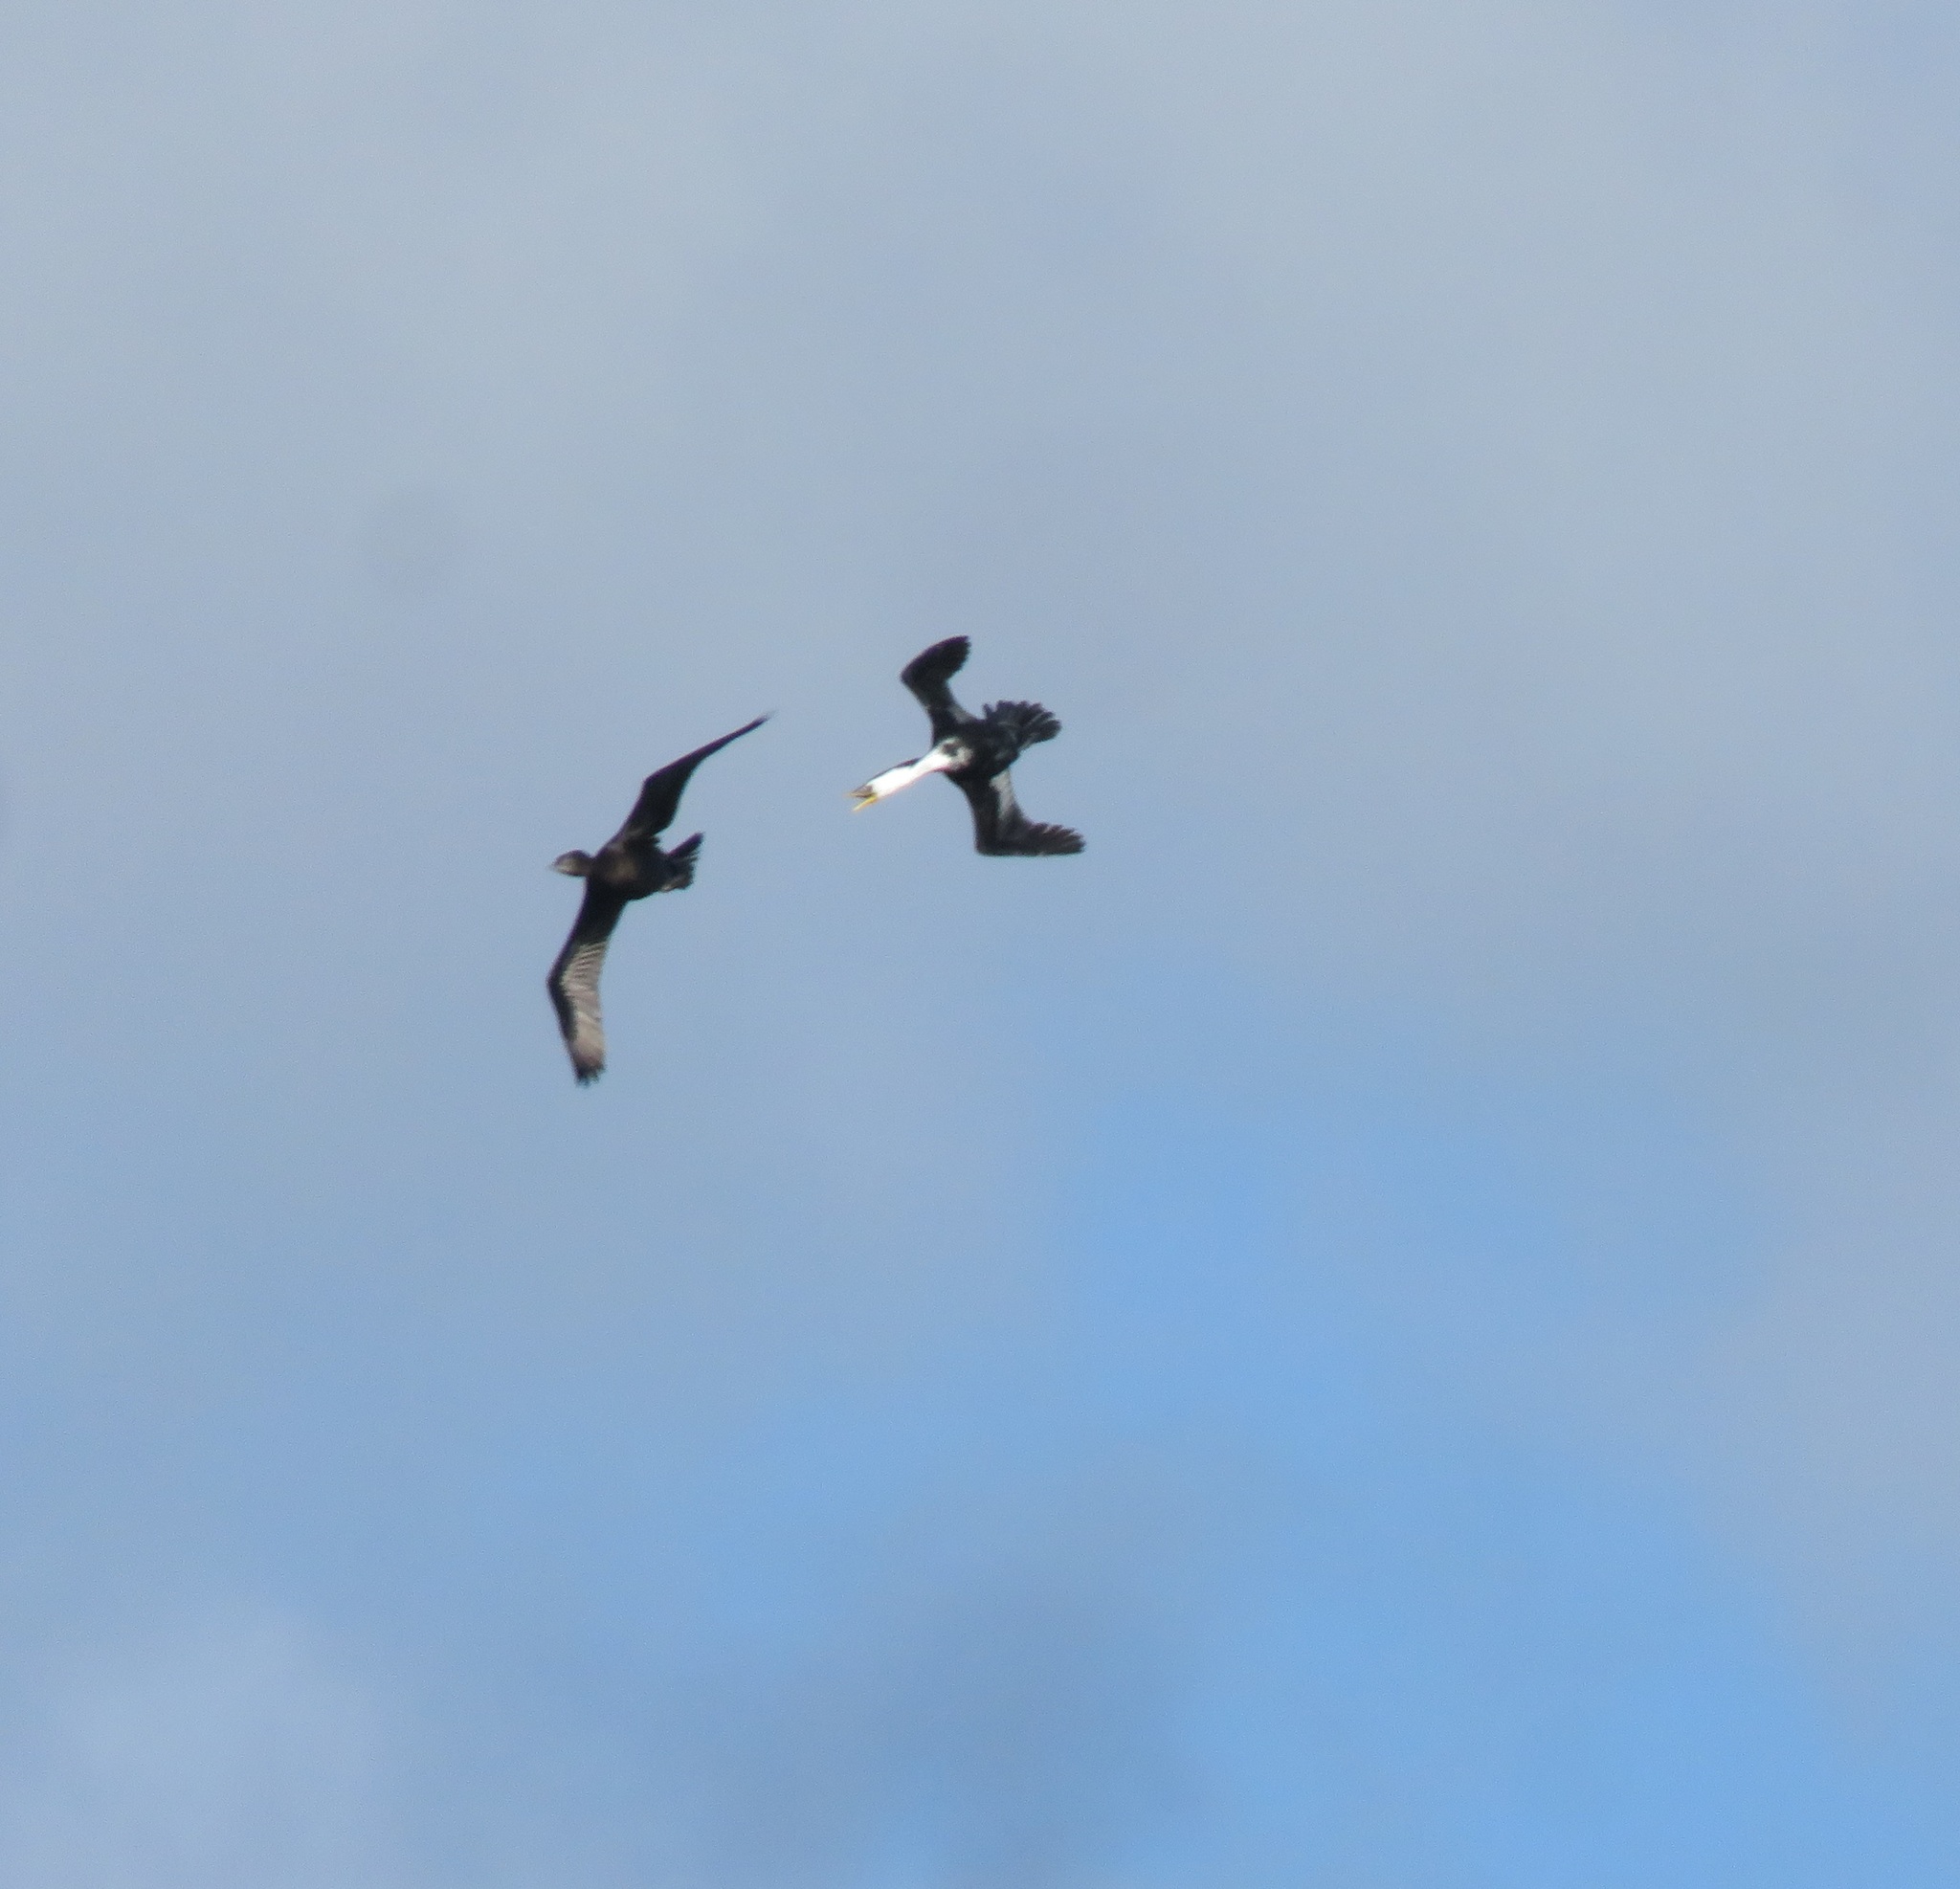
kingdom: Animalia
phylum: Chordata
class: Aves
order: Suliformes
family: Phalacrocoracidae
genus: Microcarbo
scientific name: Microcarbo melanoleucos
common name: Little pied cormorant
